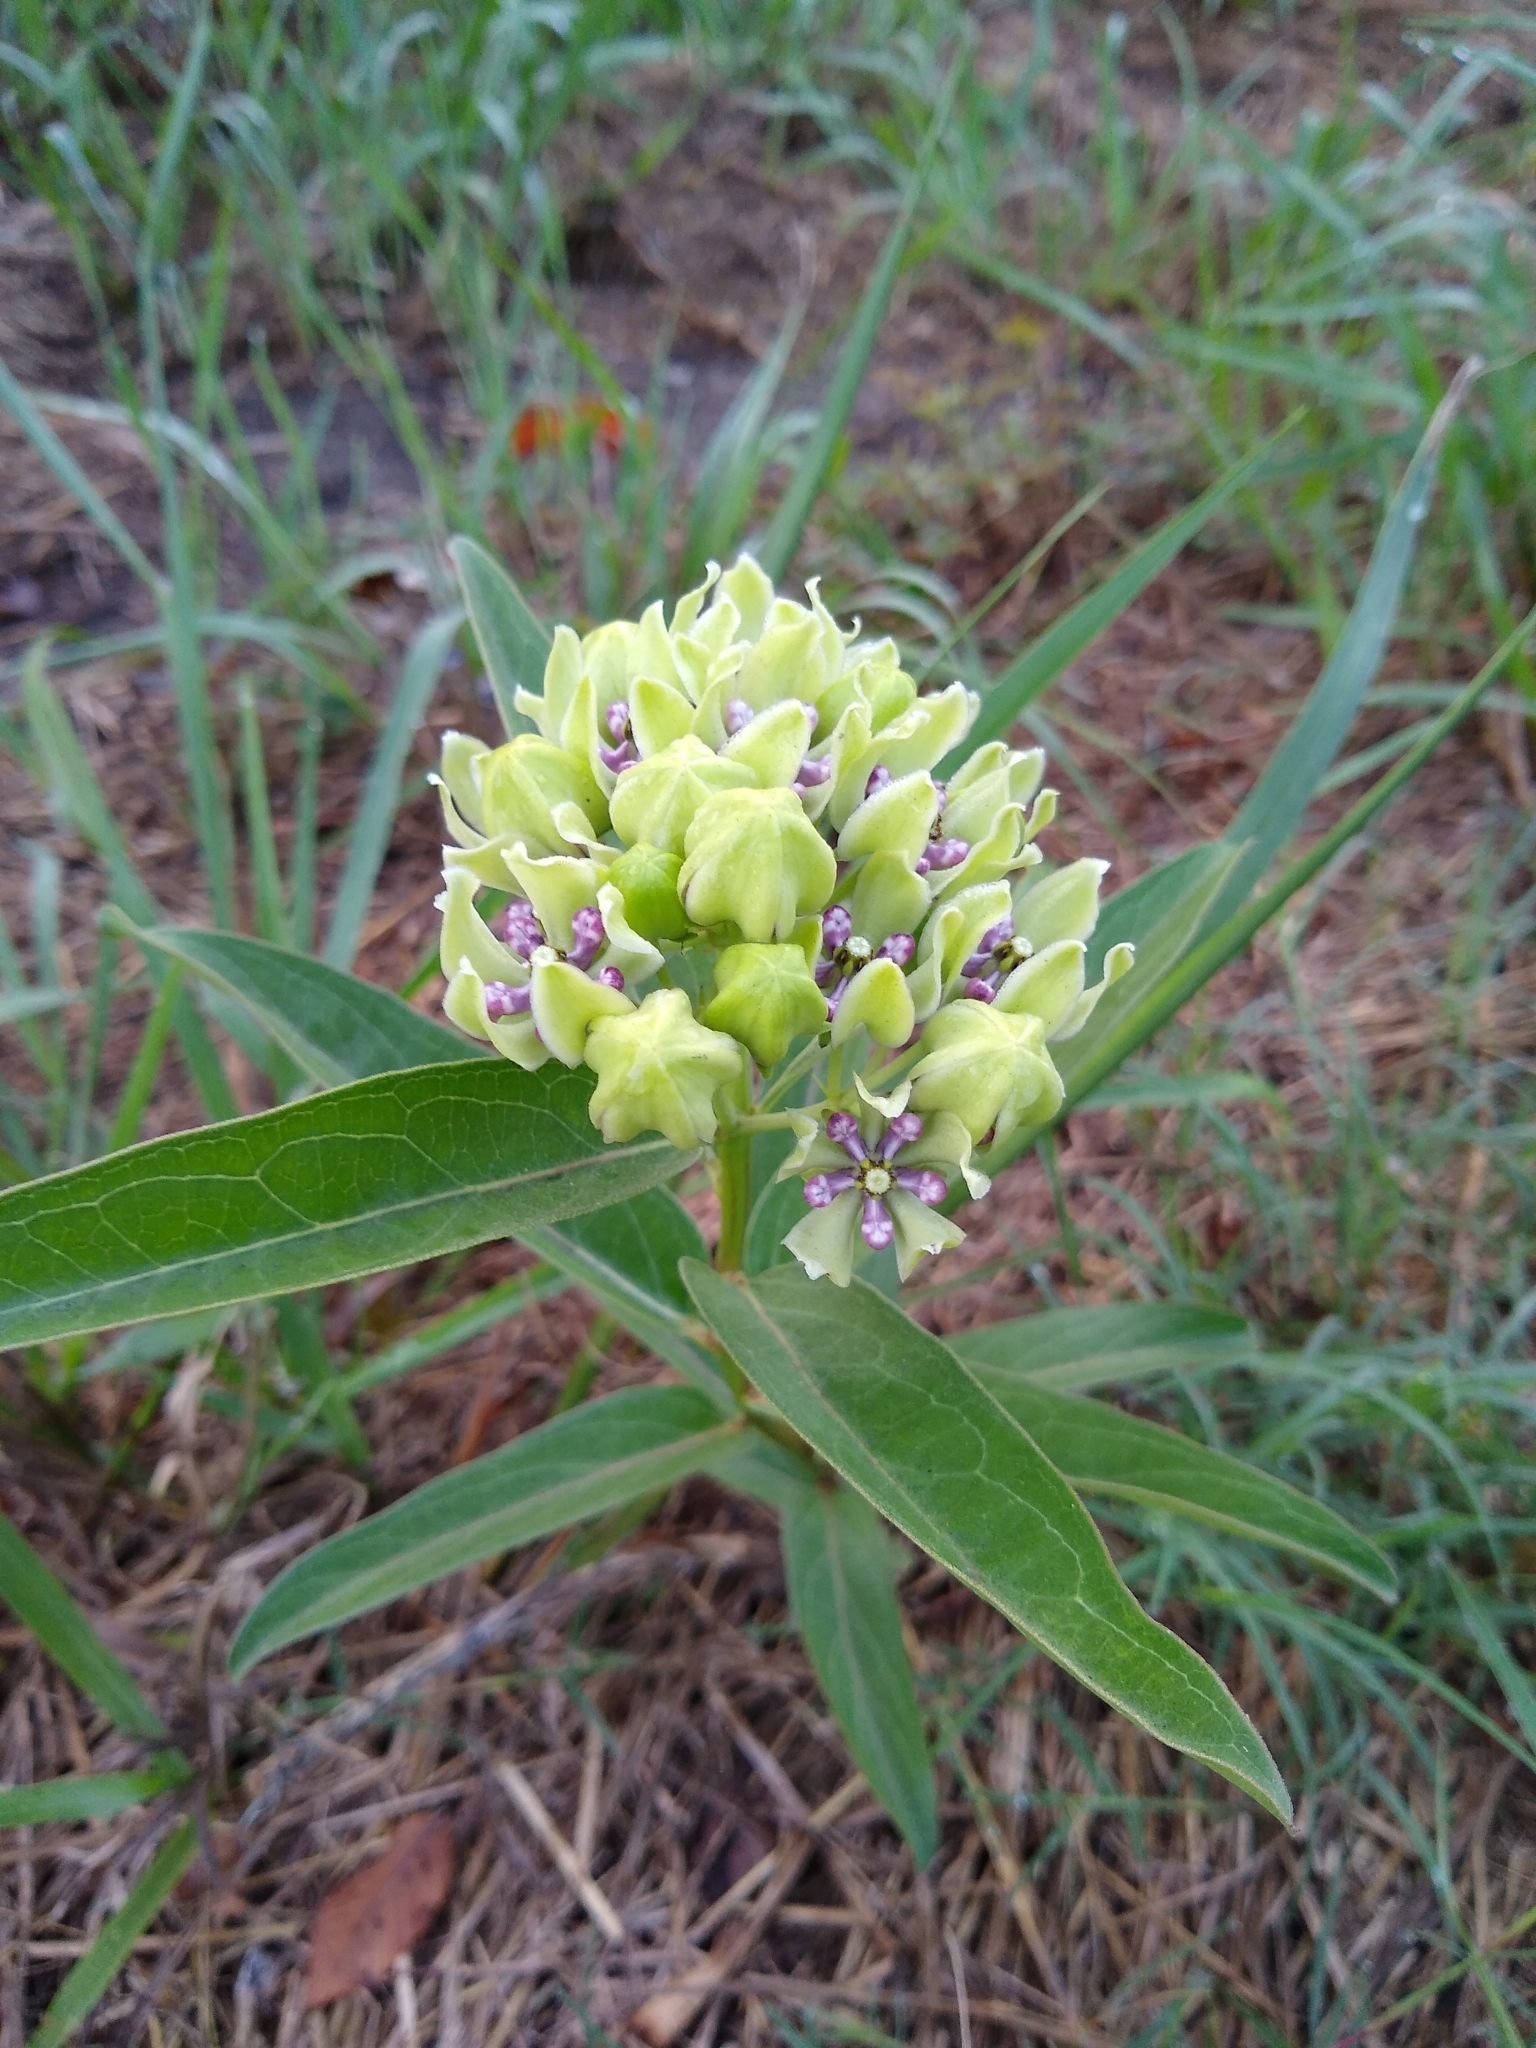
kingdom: Plantae
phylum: Tracheophyta
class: Magnoliopsida
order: Gentianales
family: Apocynaceae
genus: Asclepias
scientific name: Asclepias viridis
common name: Antelope-horns
